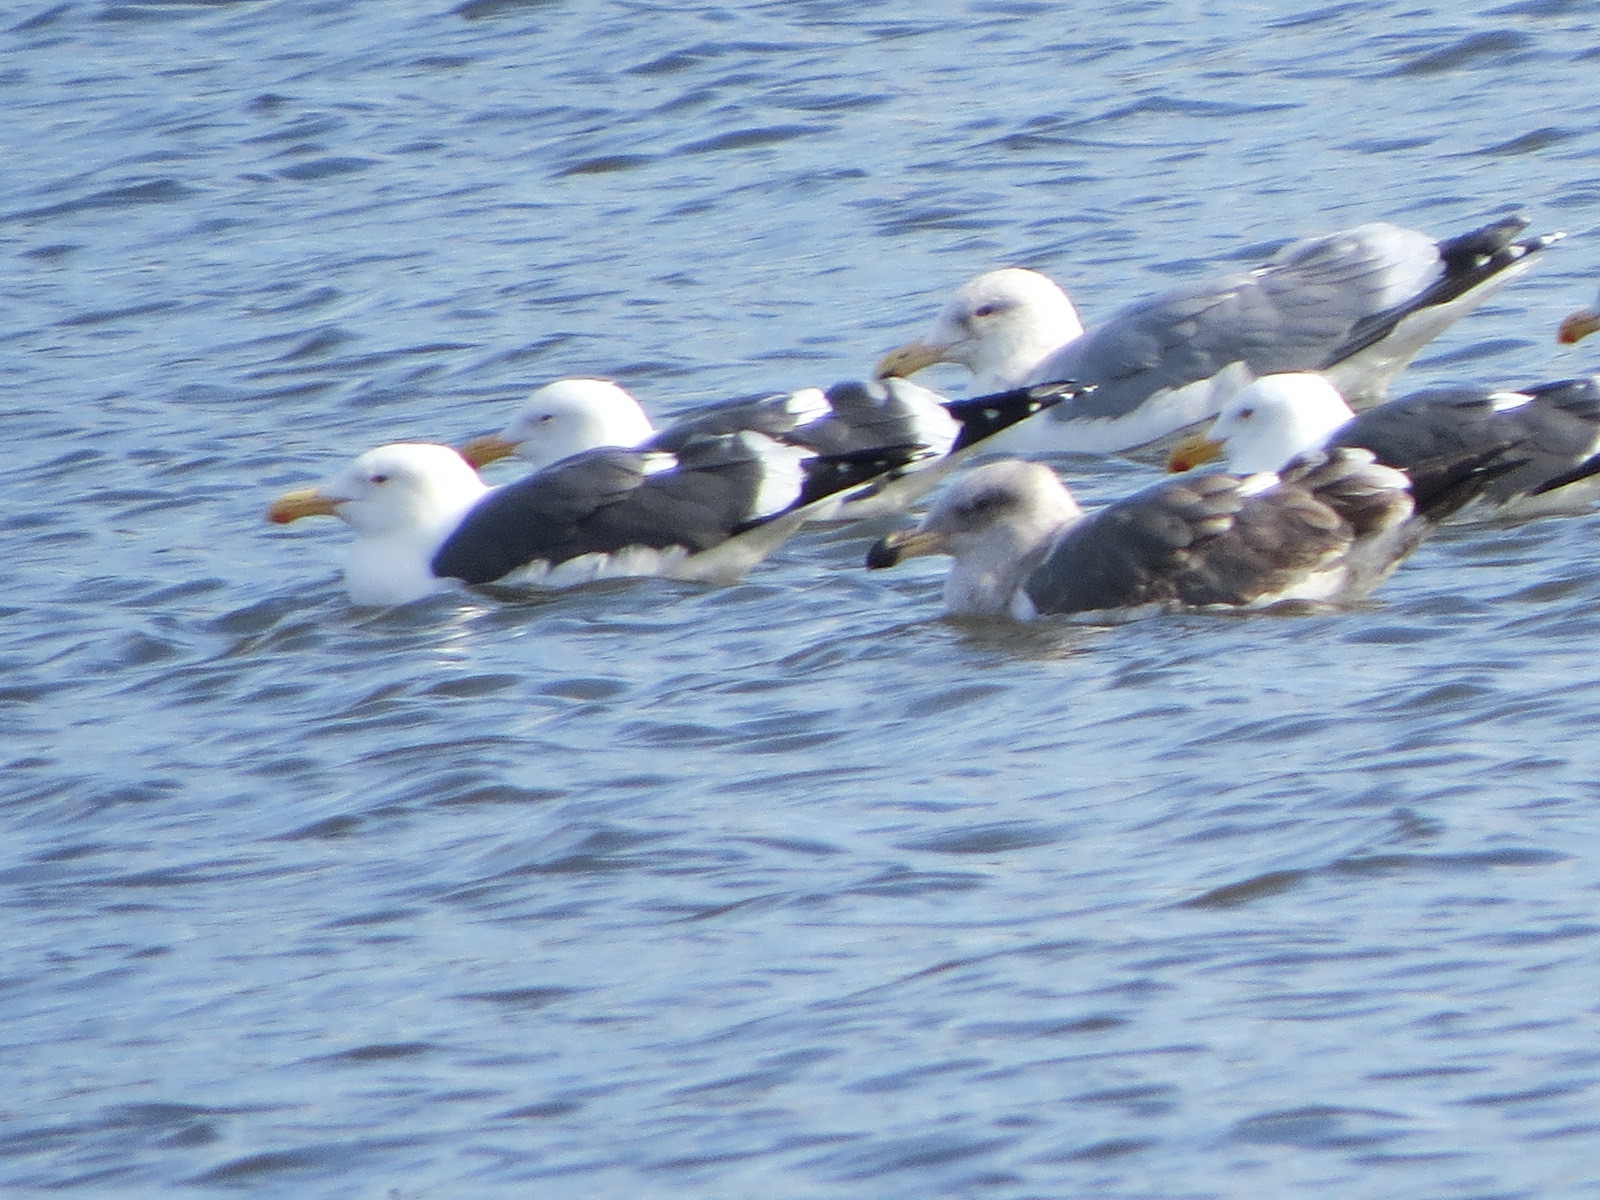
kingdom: Animalia
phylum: Chordata
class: Aves
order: Charadriiformes
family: Laridae
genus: Larus
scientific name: Larus occidentalis
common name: Western gull
